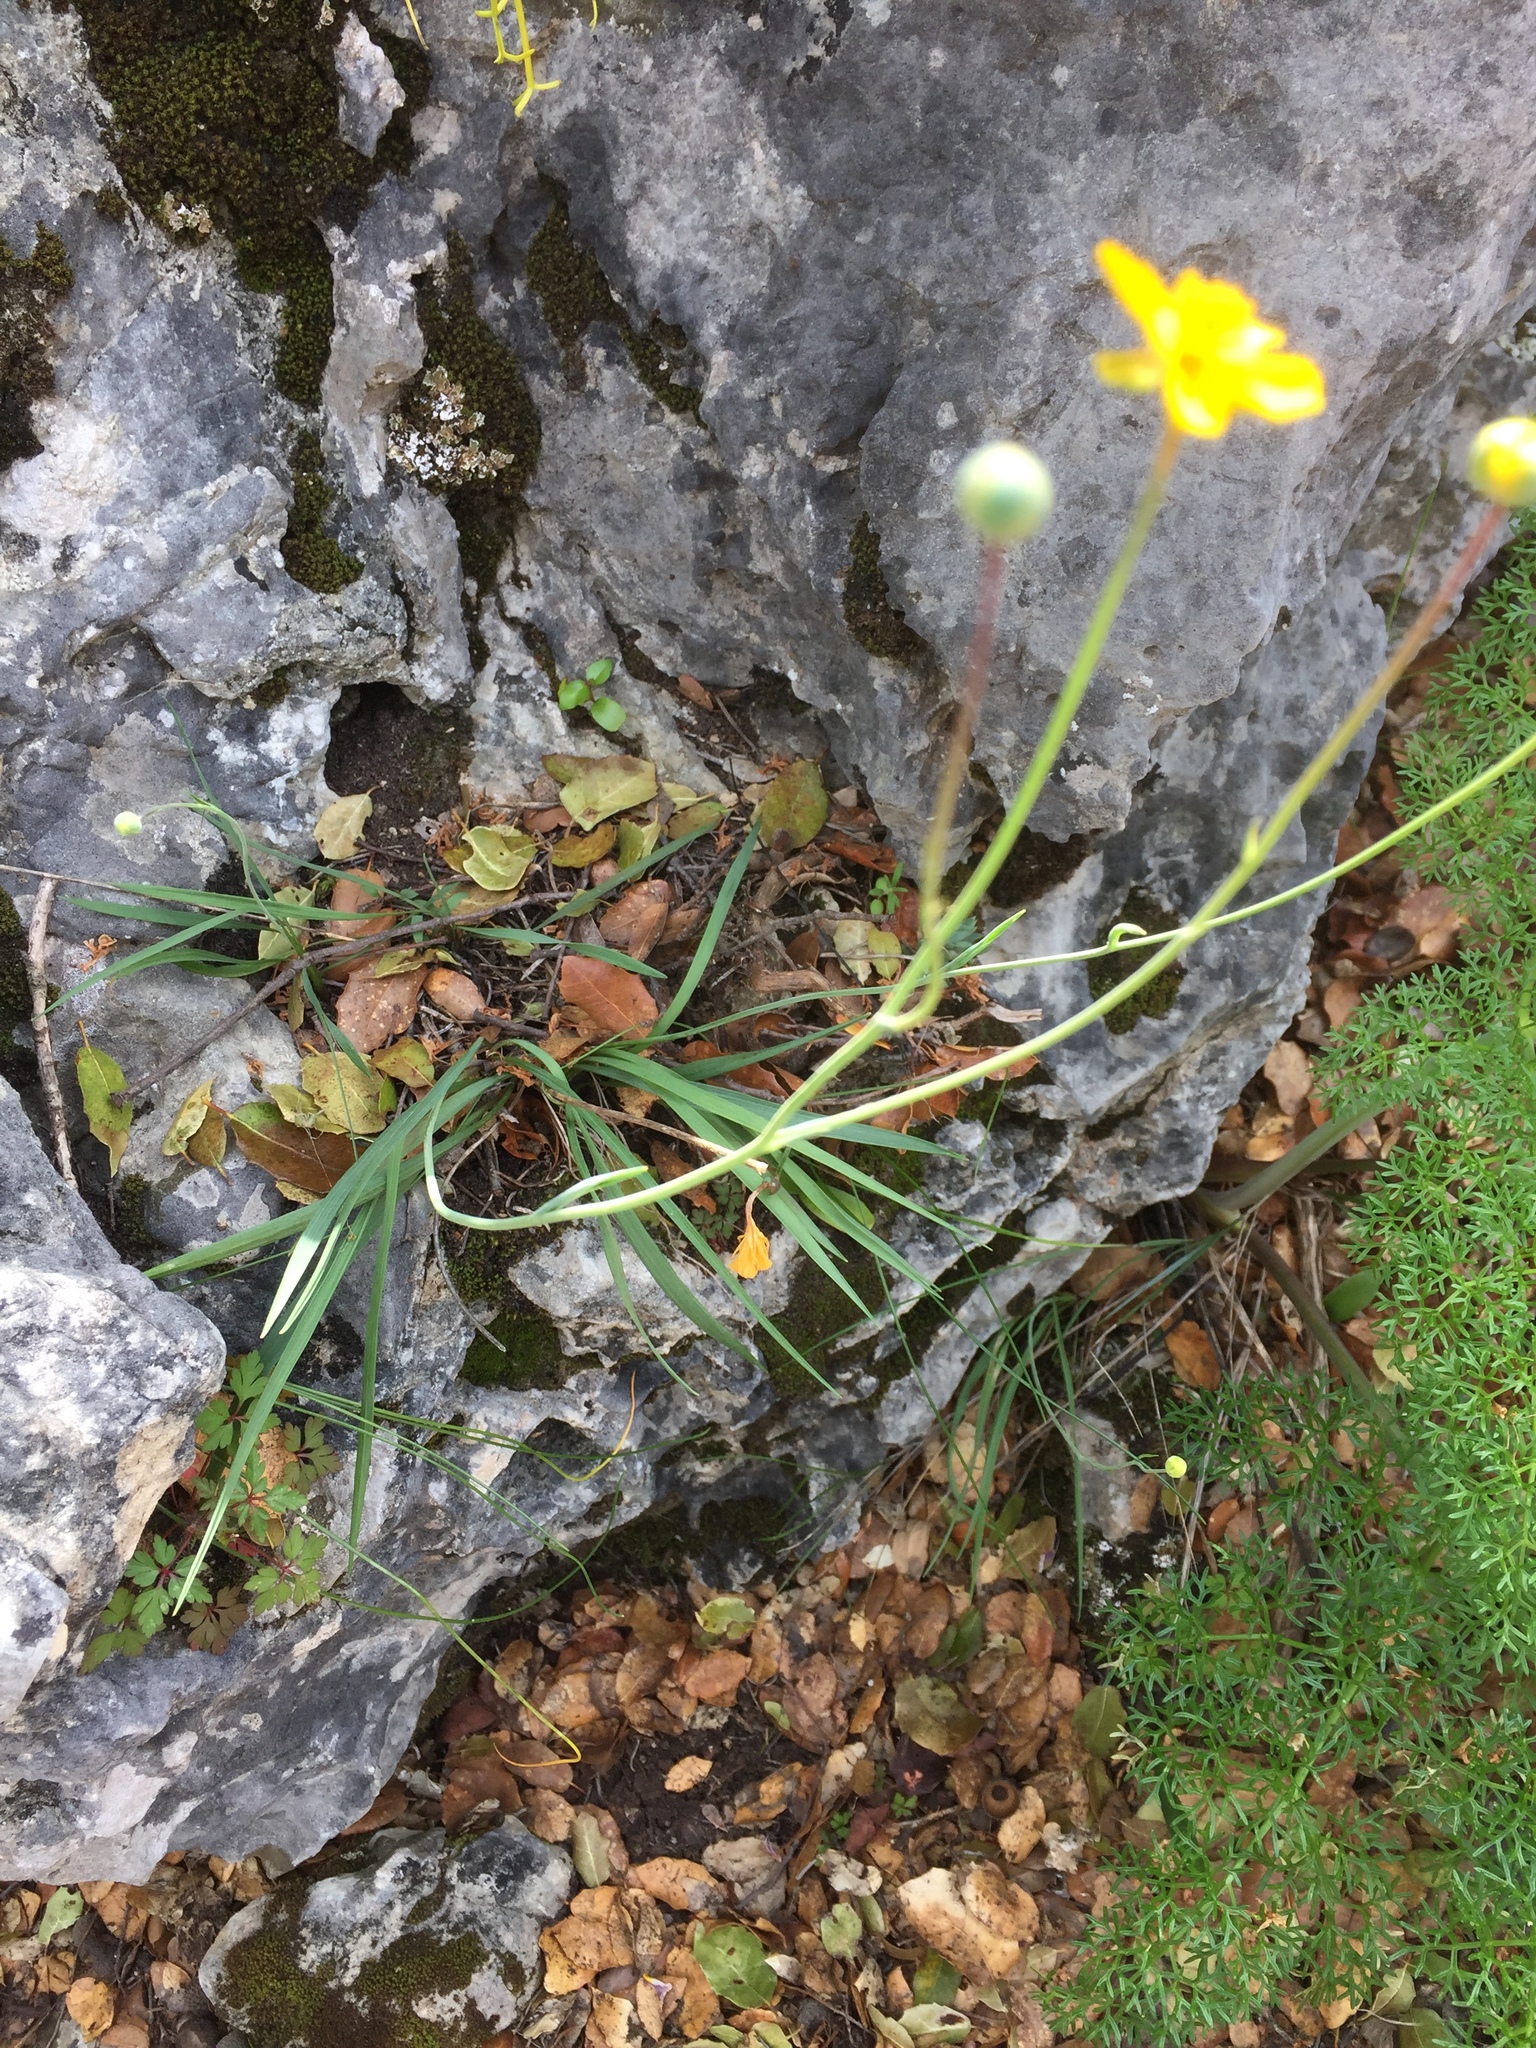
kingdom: Plantae
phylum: Tracheophyta
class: Magnoliopsida
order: Ranunculales
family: Ranunculaceae
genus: Ranunculus
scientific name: Ranunculus gramineus
